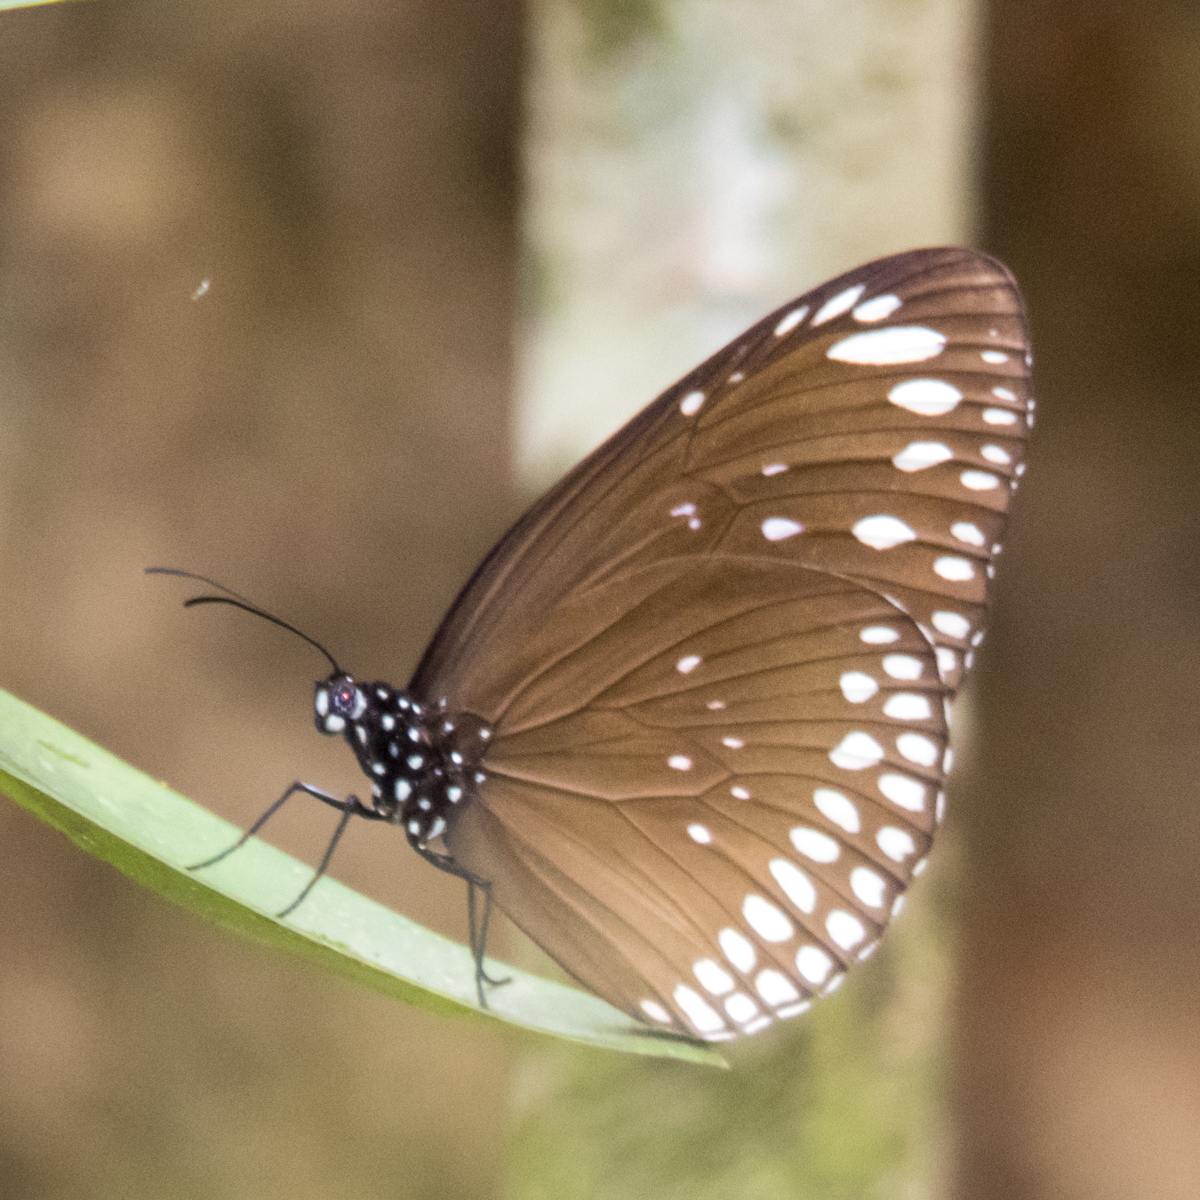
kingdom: Animalia
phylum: Arthropoda
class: Insecta
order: Lepidoptera
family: Nymphalidae
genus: Euploea
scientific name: Euploea crameri
